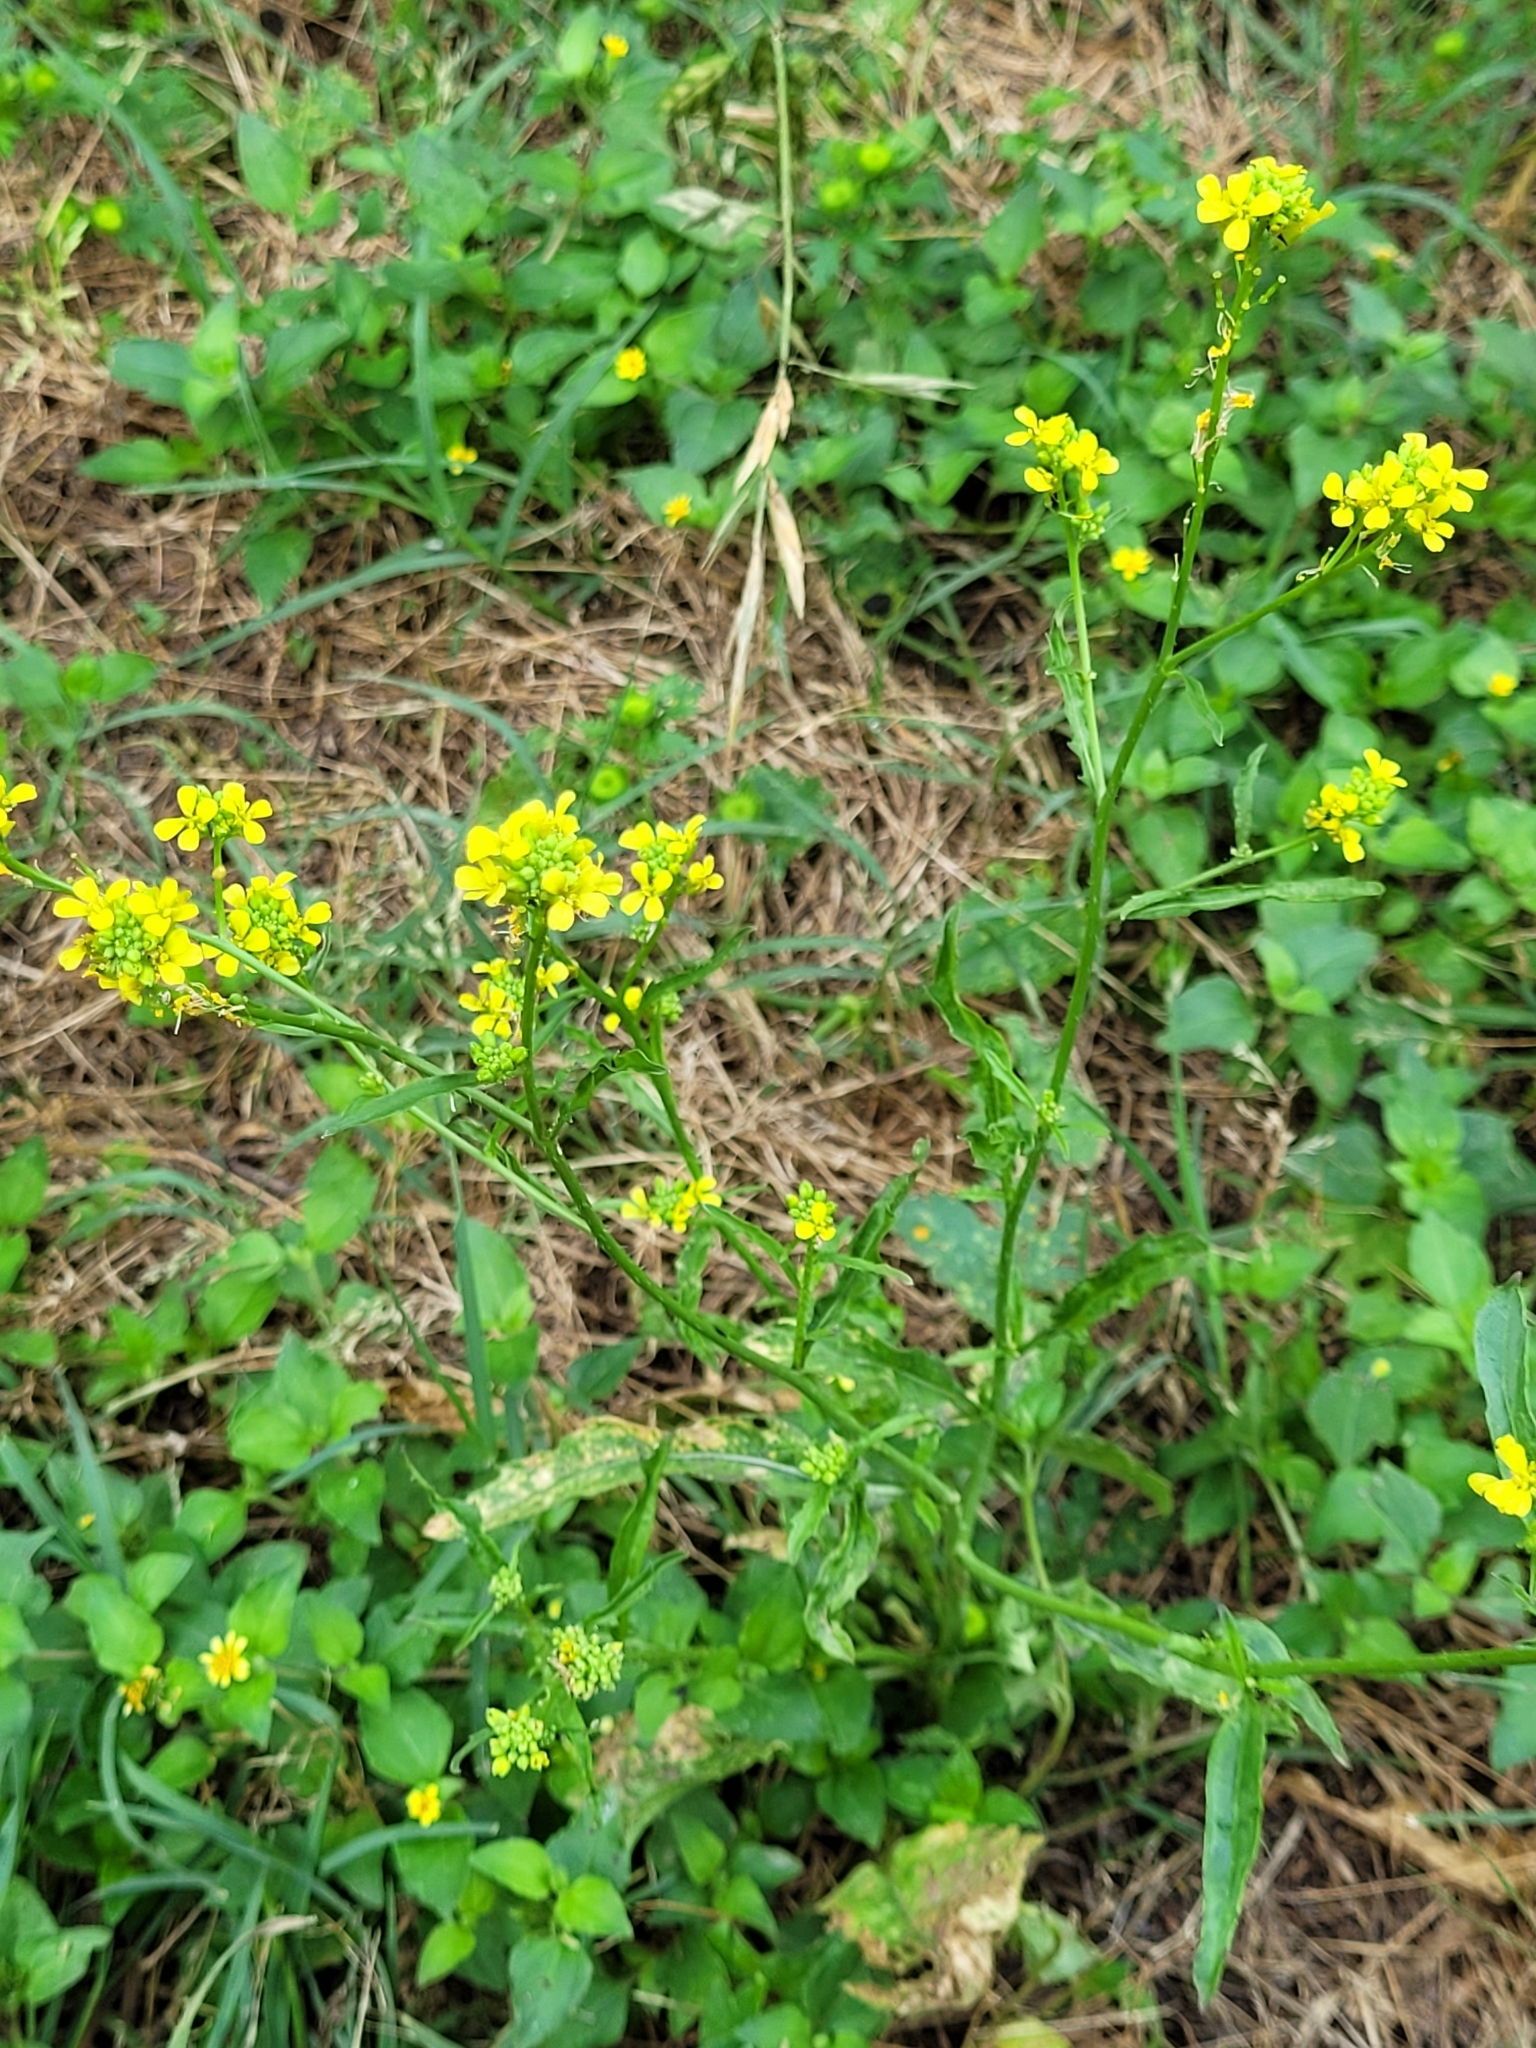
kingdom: Plantae
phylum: Tracheophyta
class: Magnoliopsida
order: Brassicales
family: Brassicaceae
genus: Rapistrum
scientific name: Rapistrum rugosum
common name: Annual bastardcabbage
